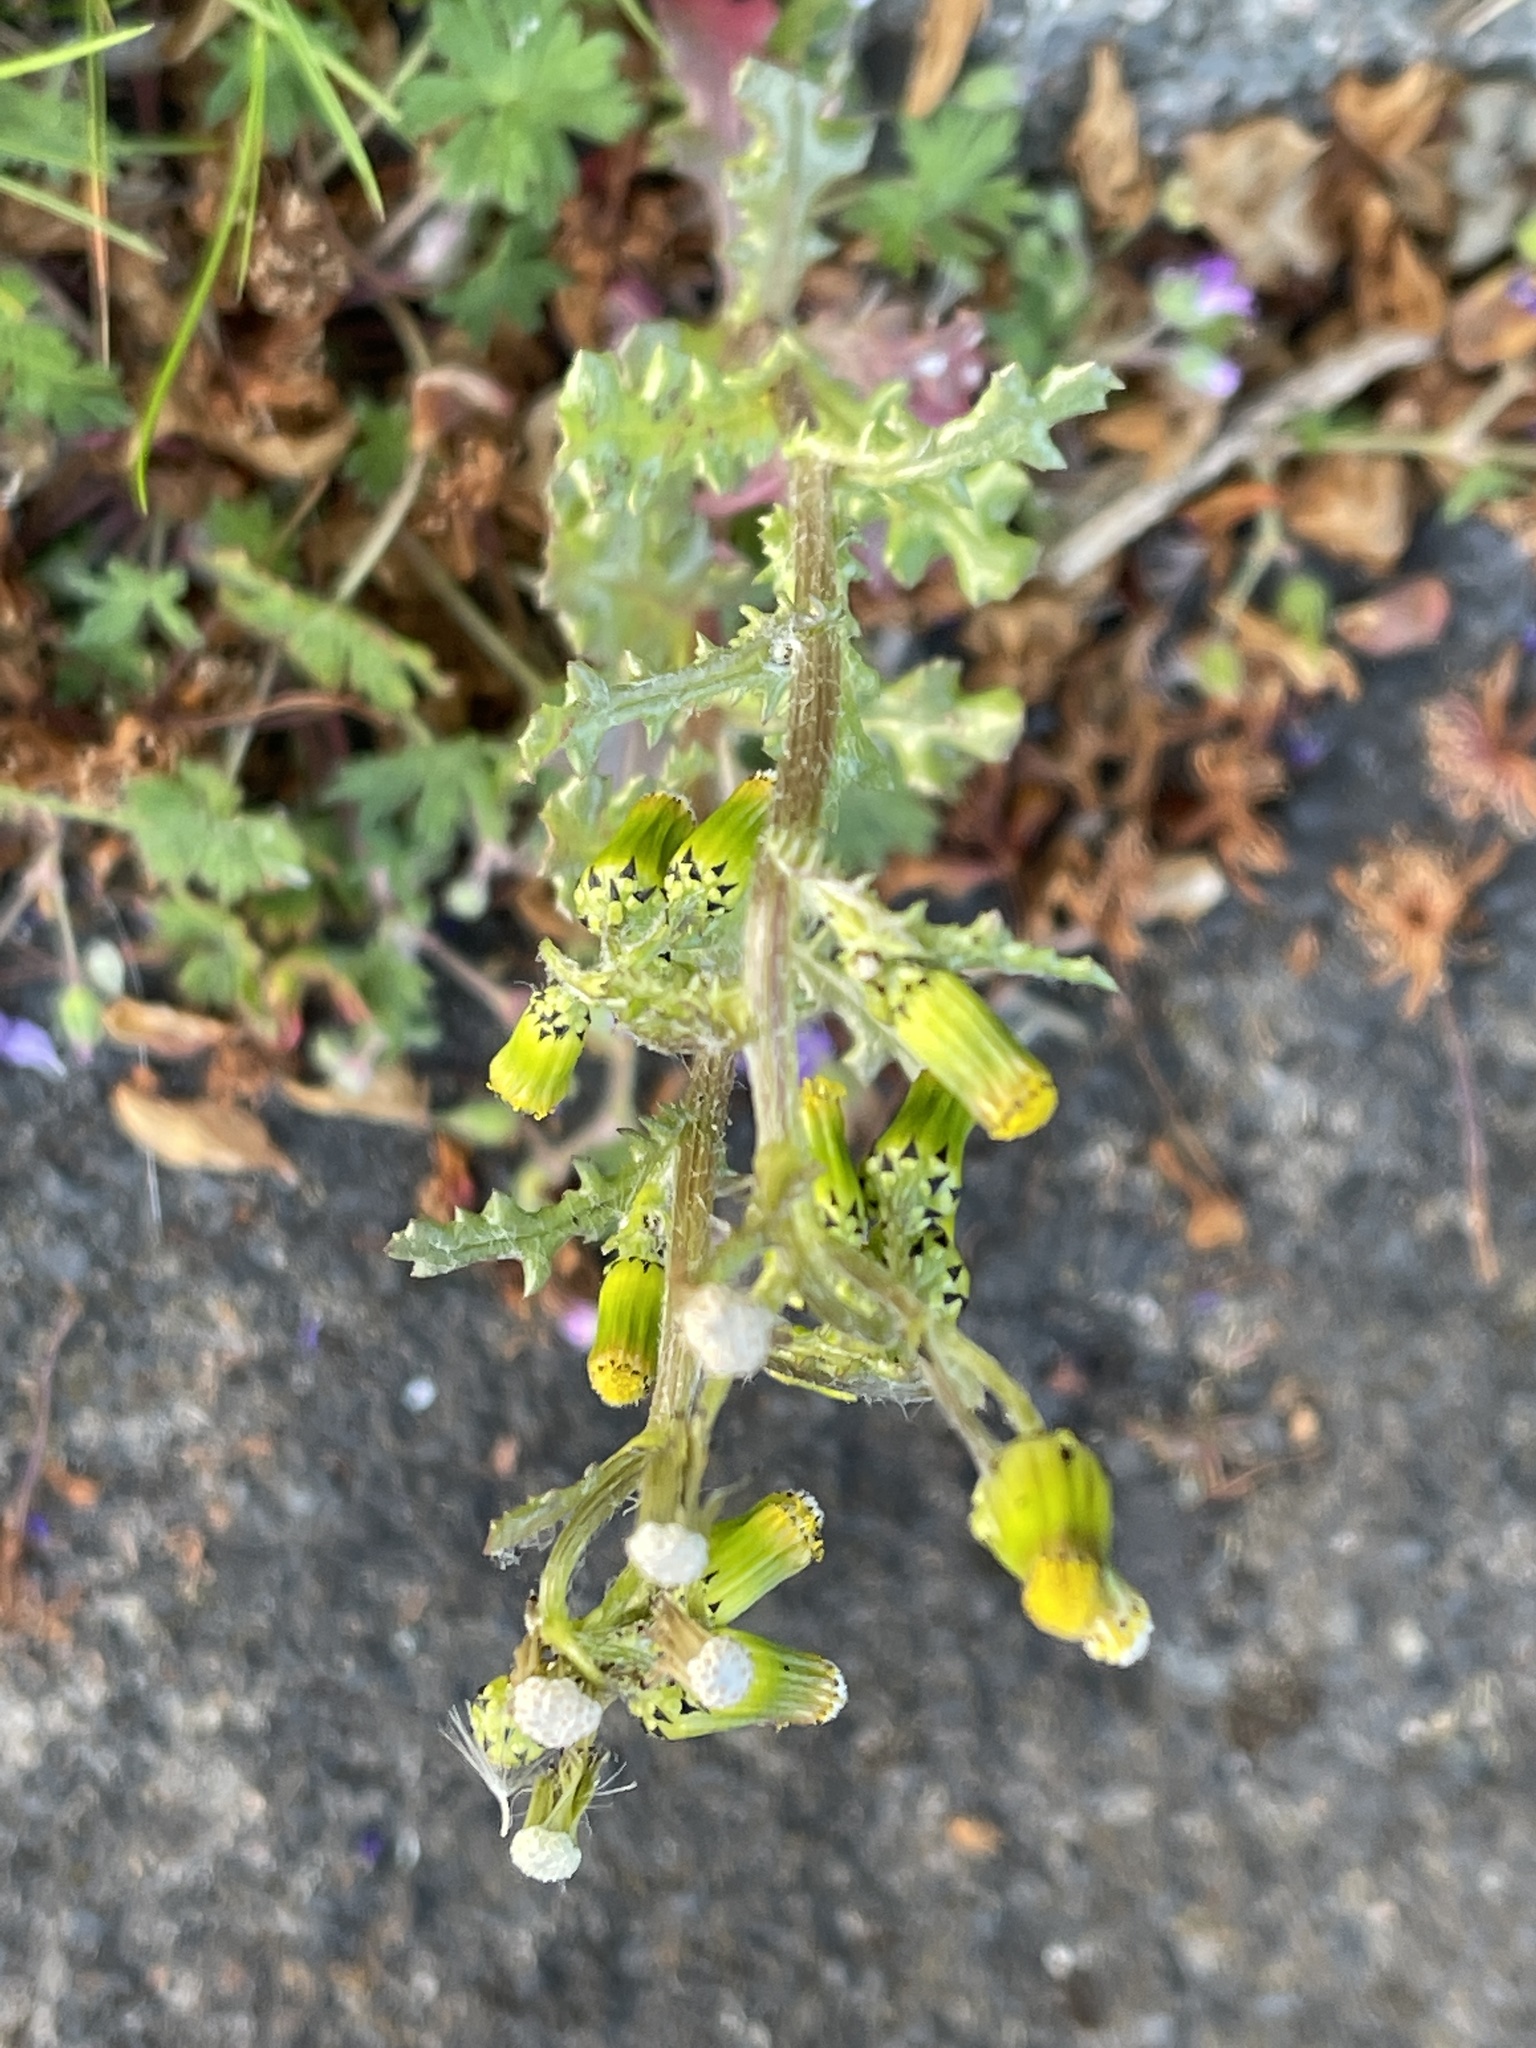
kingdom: Plantae
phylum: Tracheophyta
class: Magnoliopsida
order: Asterales
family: Asteraceae
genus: Senecio
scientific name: Senecio vulgaris
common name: Old-man-in-the-spring
